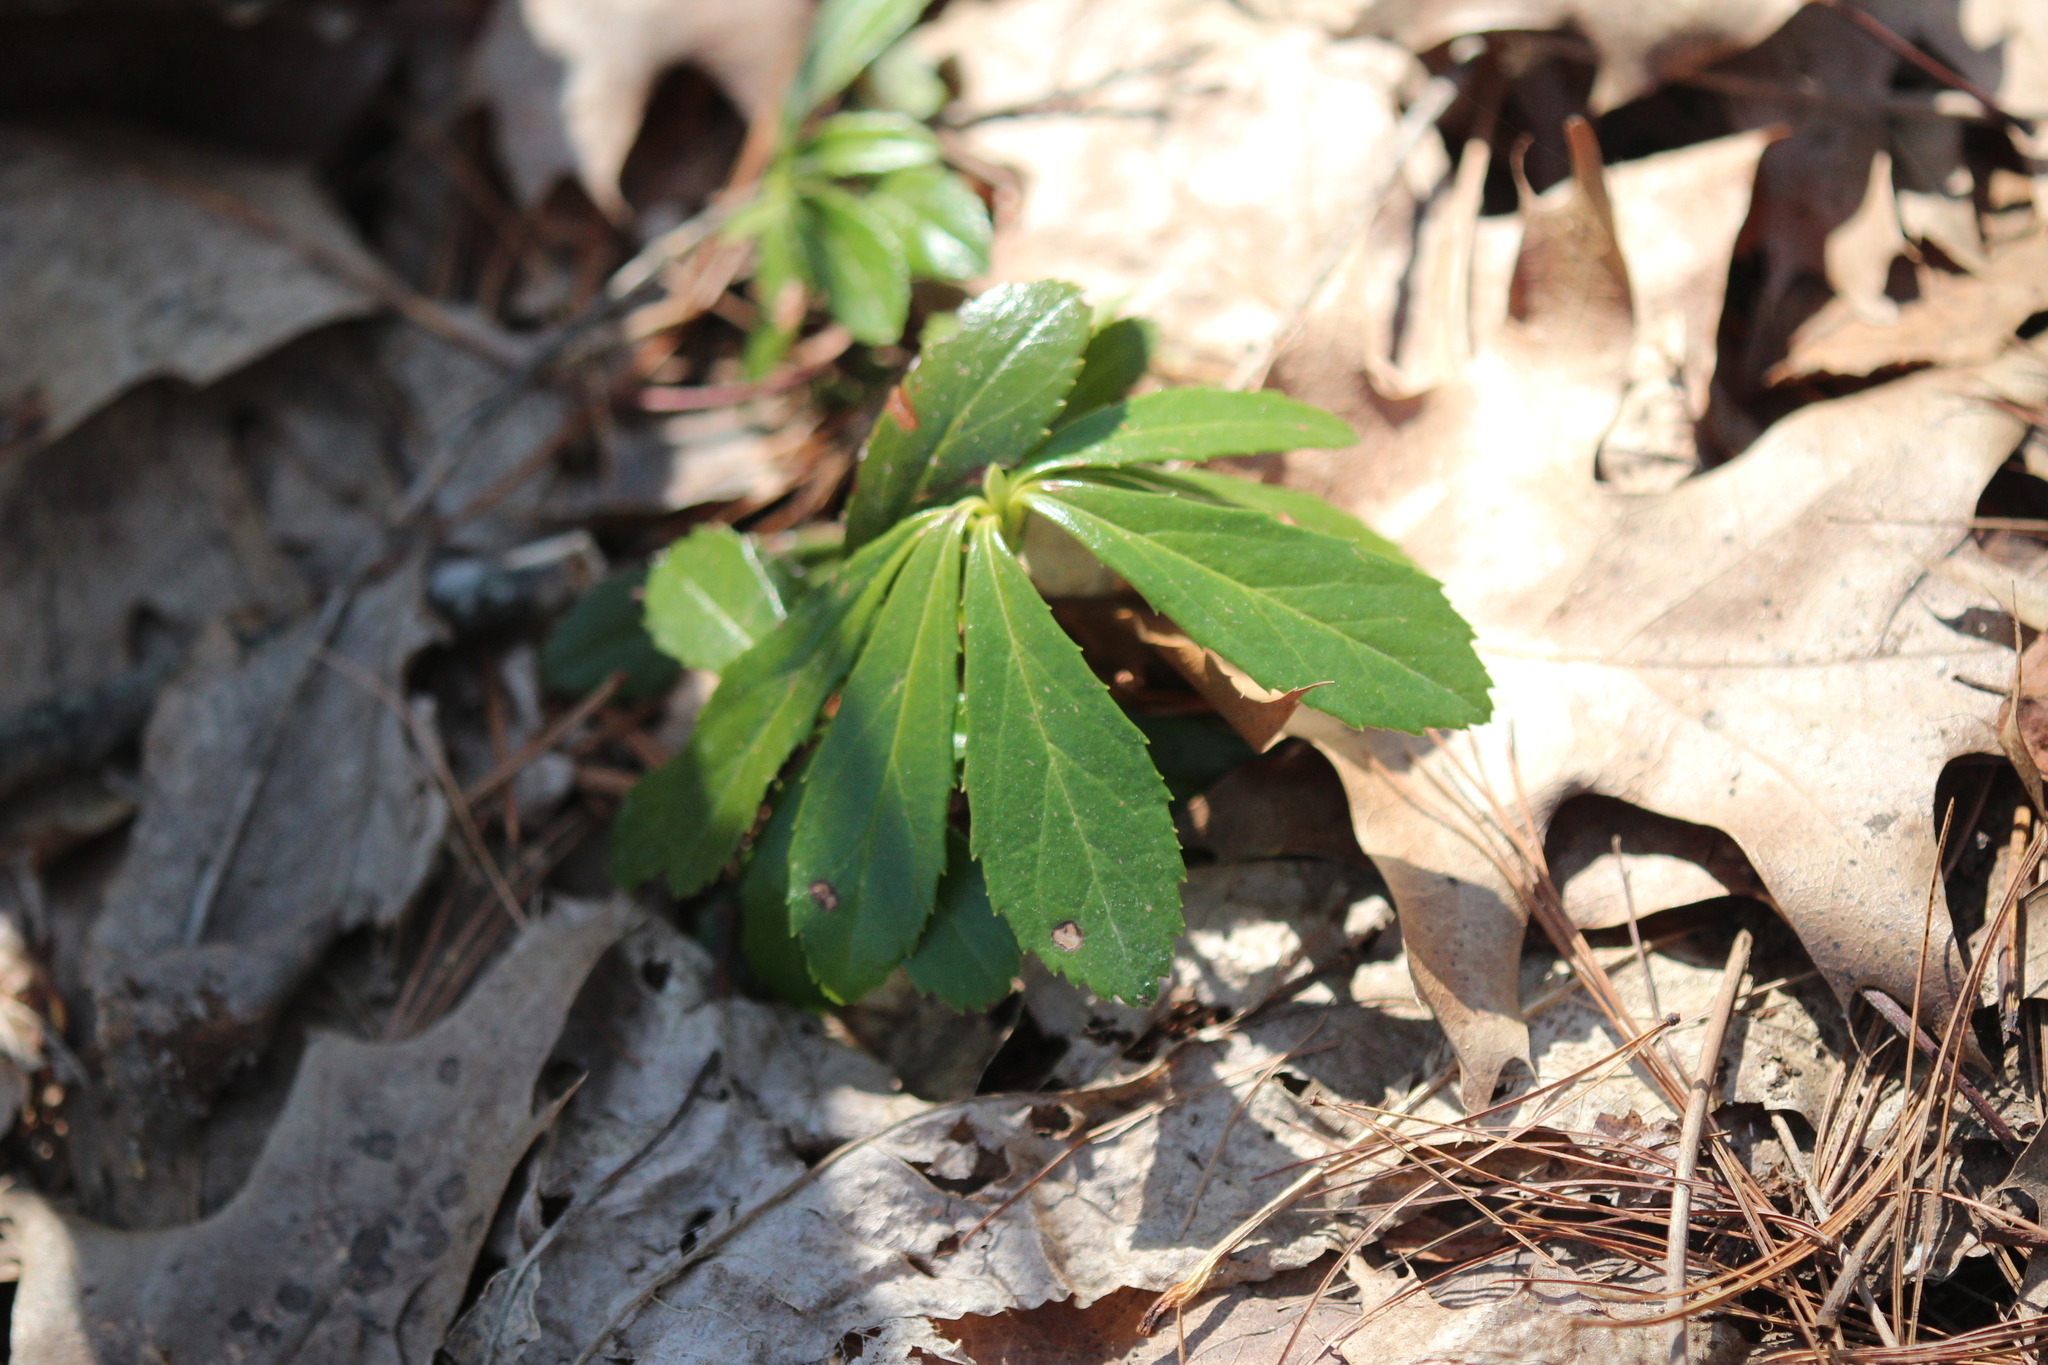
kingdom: Plantae
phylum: Tracheophyta
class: Magnoliopsida
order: Ericales
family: Ericaceae
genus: Chimaphila
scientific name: Chimaphila umbellata
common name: Pipsissewa
